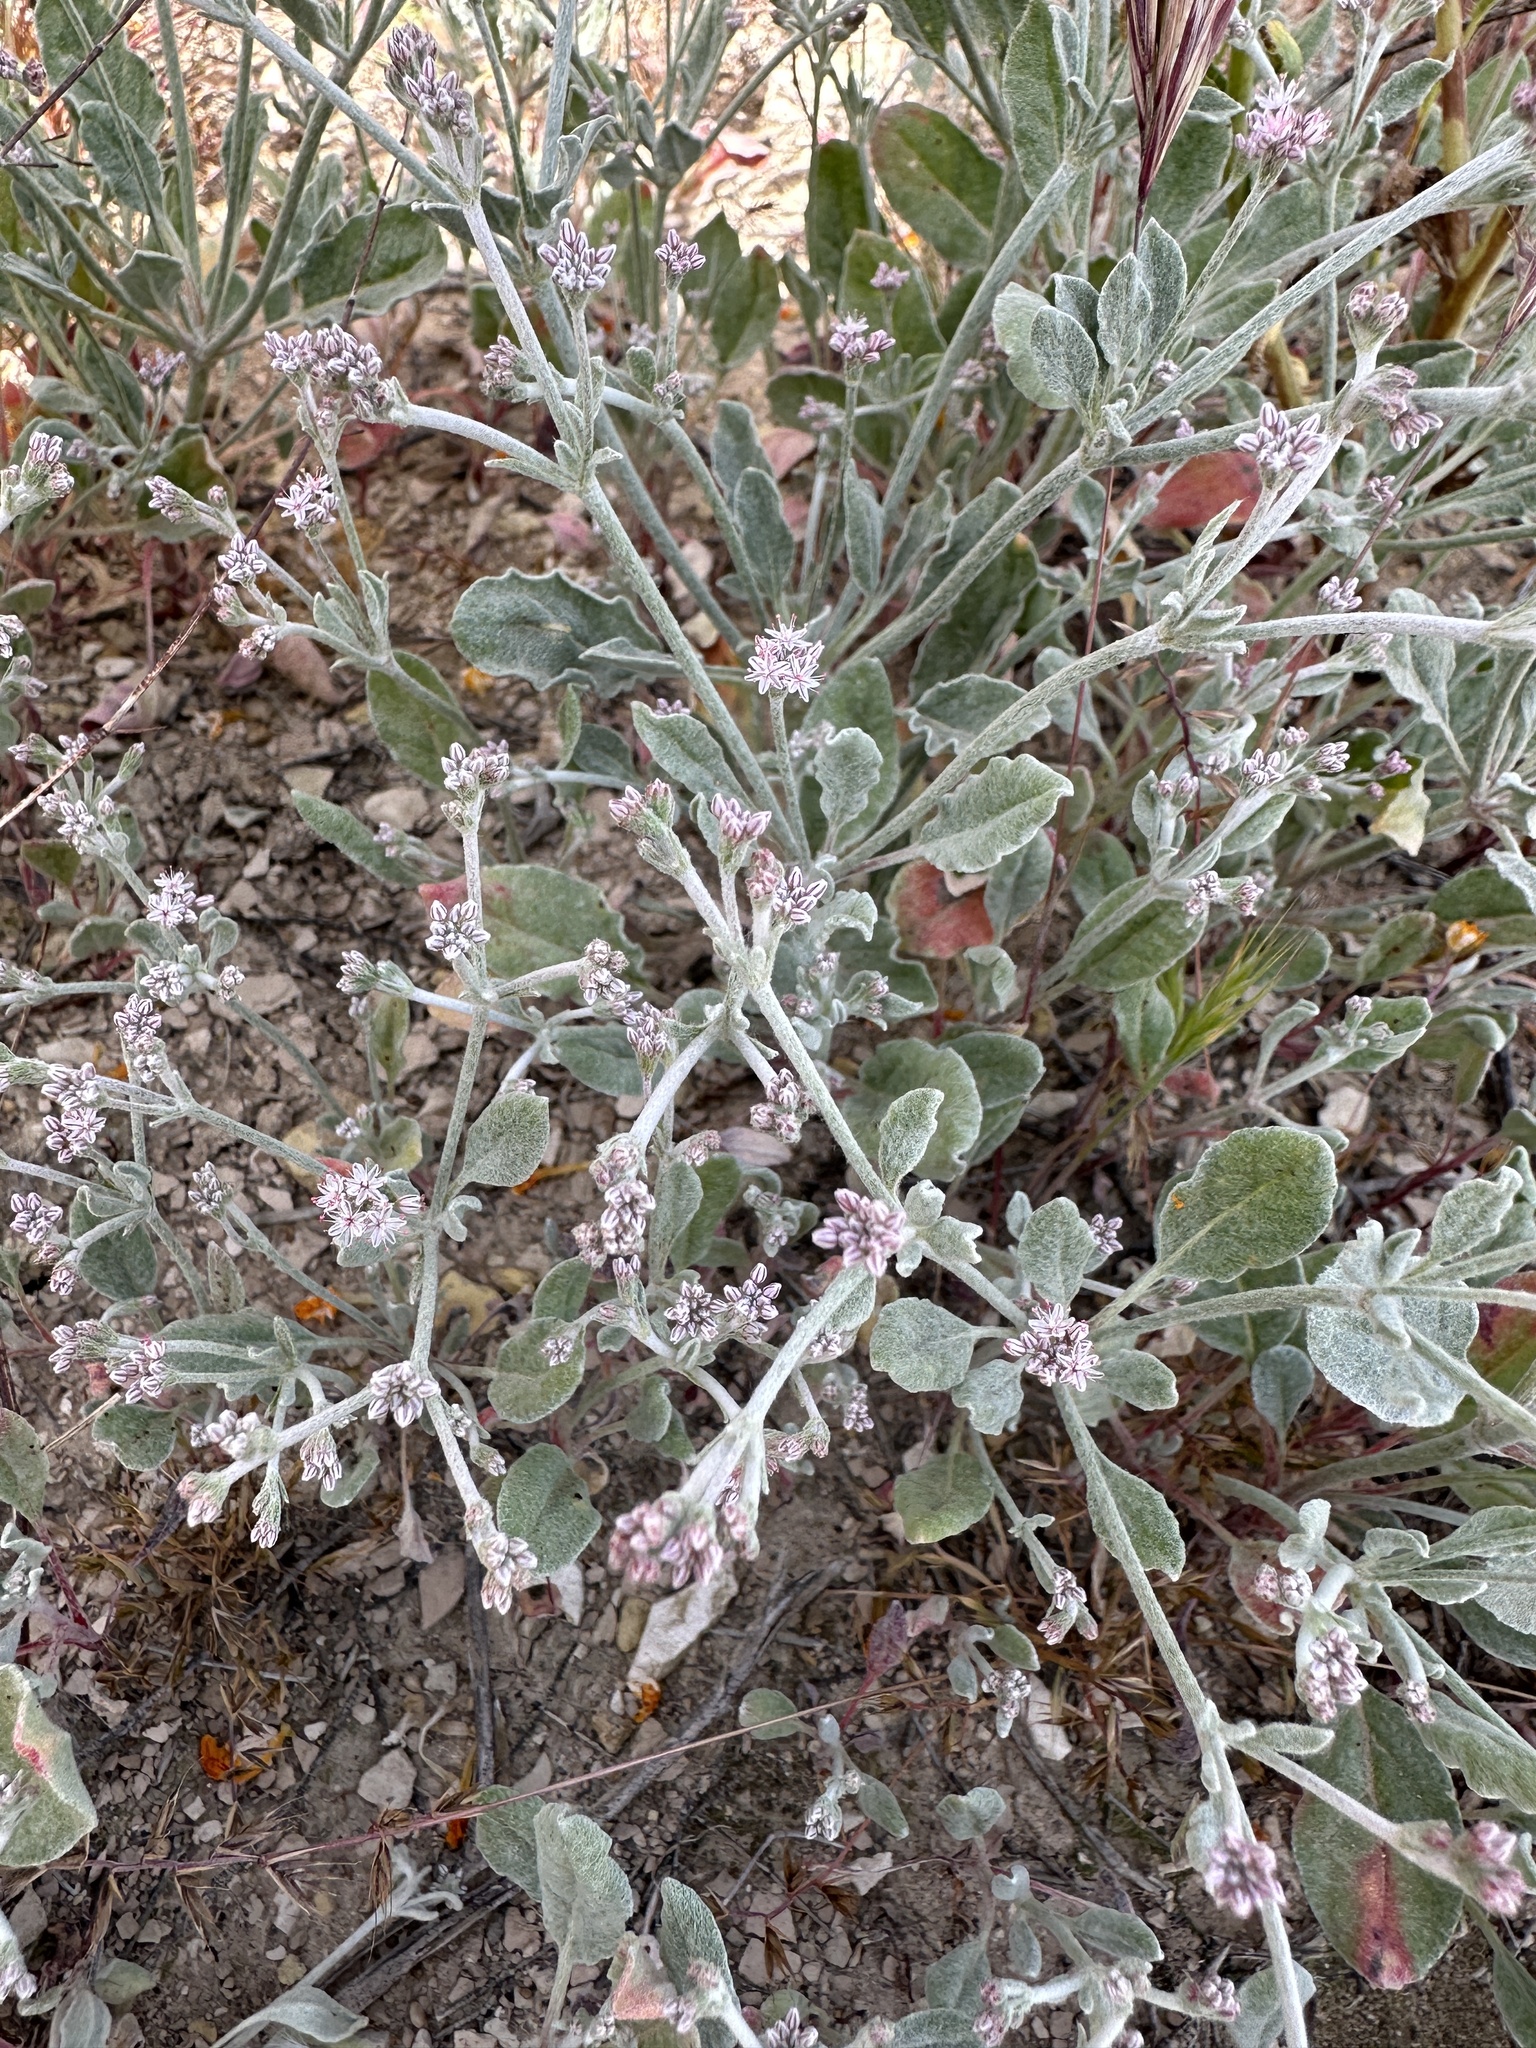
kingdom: Plantae
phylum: Tracheophyta
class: Magnoliopsida
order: Caryophyllales
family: Polygonaceae
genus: Eriogonum
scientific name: Eriogonum vestitum
